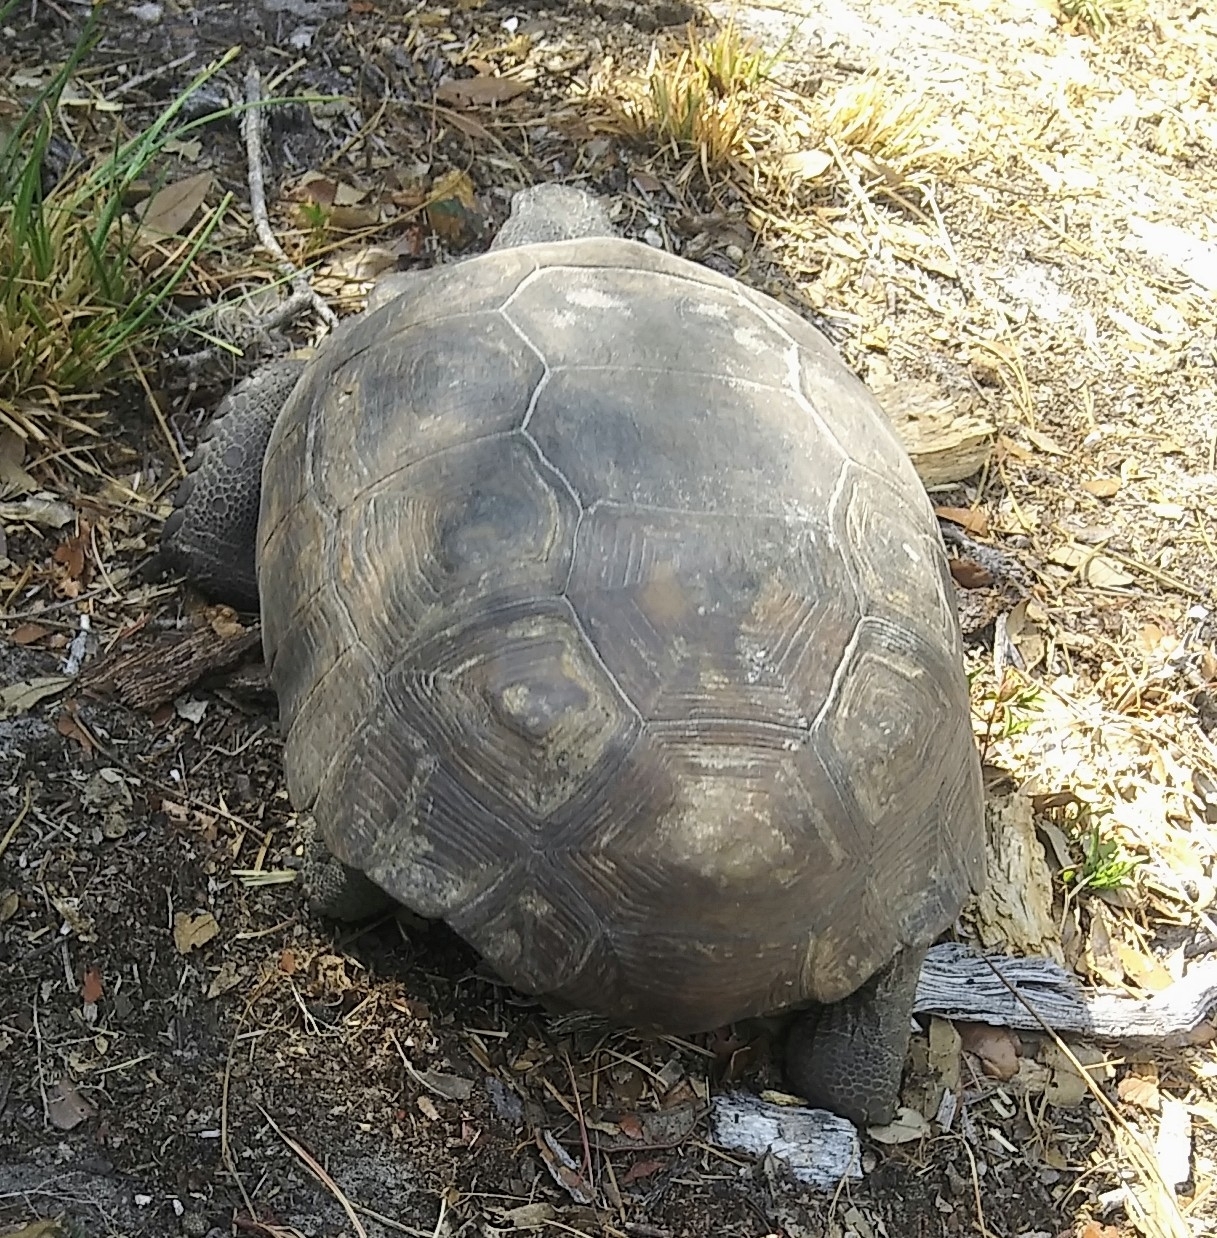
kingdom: Animalia
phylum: Chordata
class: Testudines
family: Testudinidae
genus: Gopherus
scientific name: Gopherus polyphemus
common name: Florida gopher tortoise
